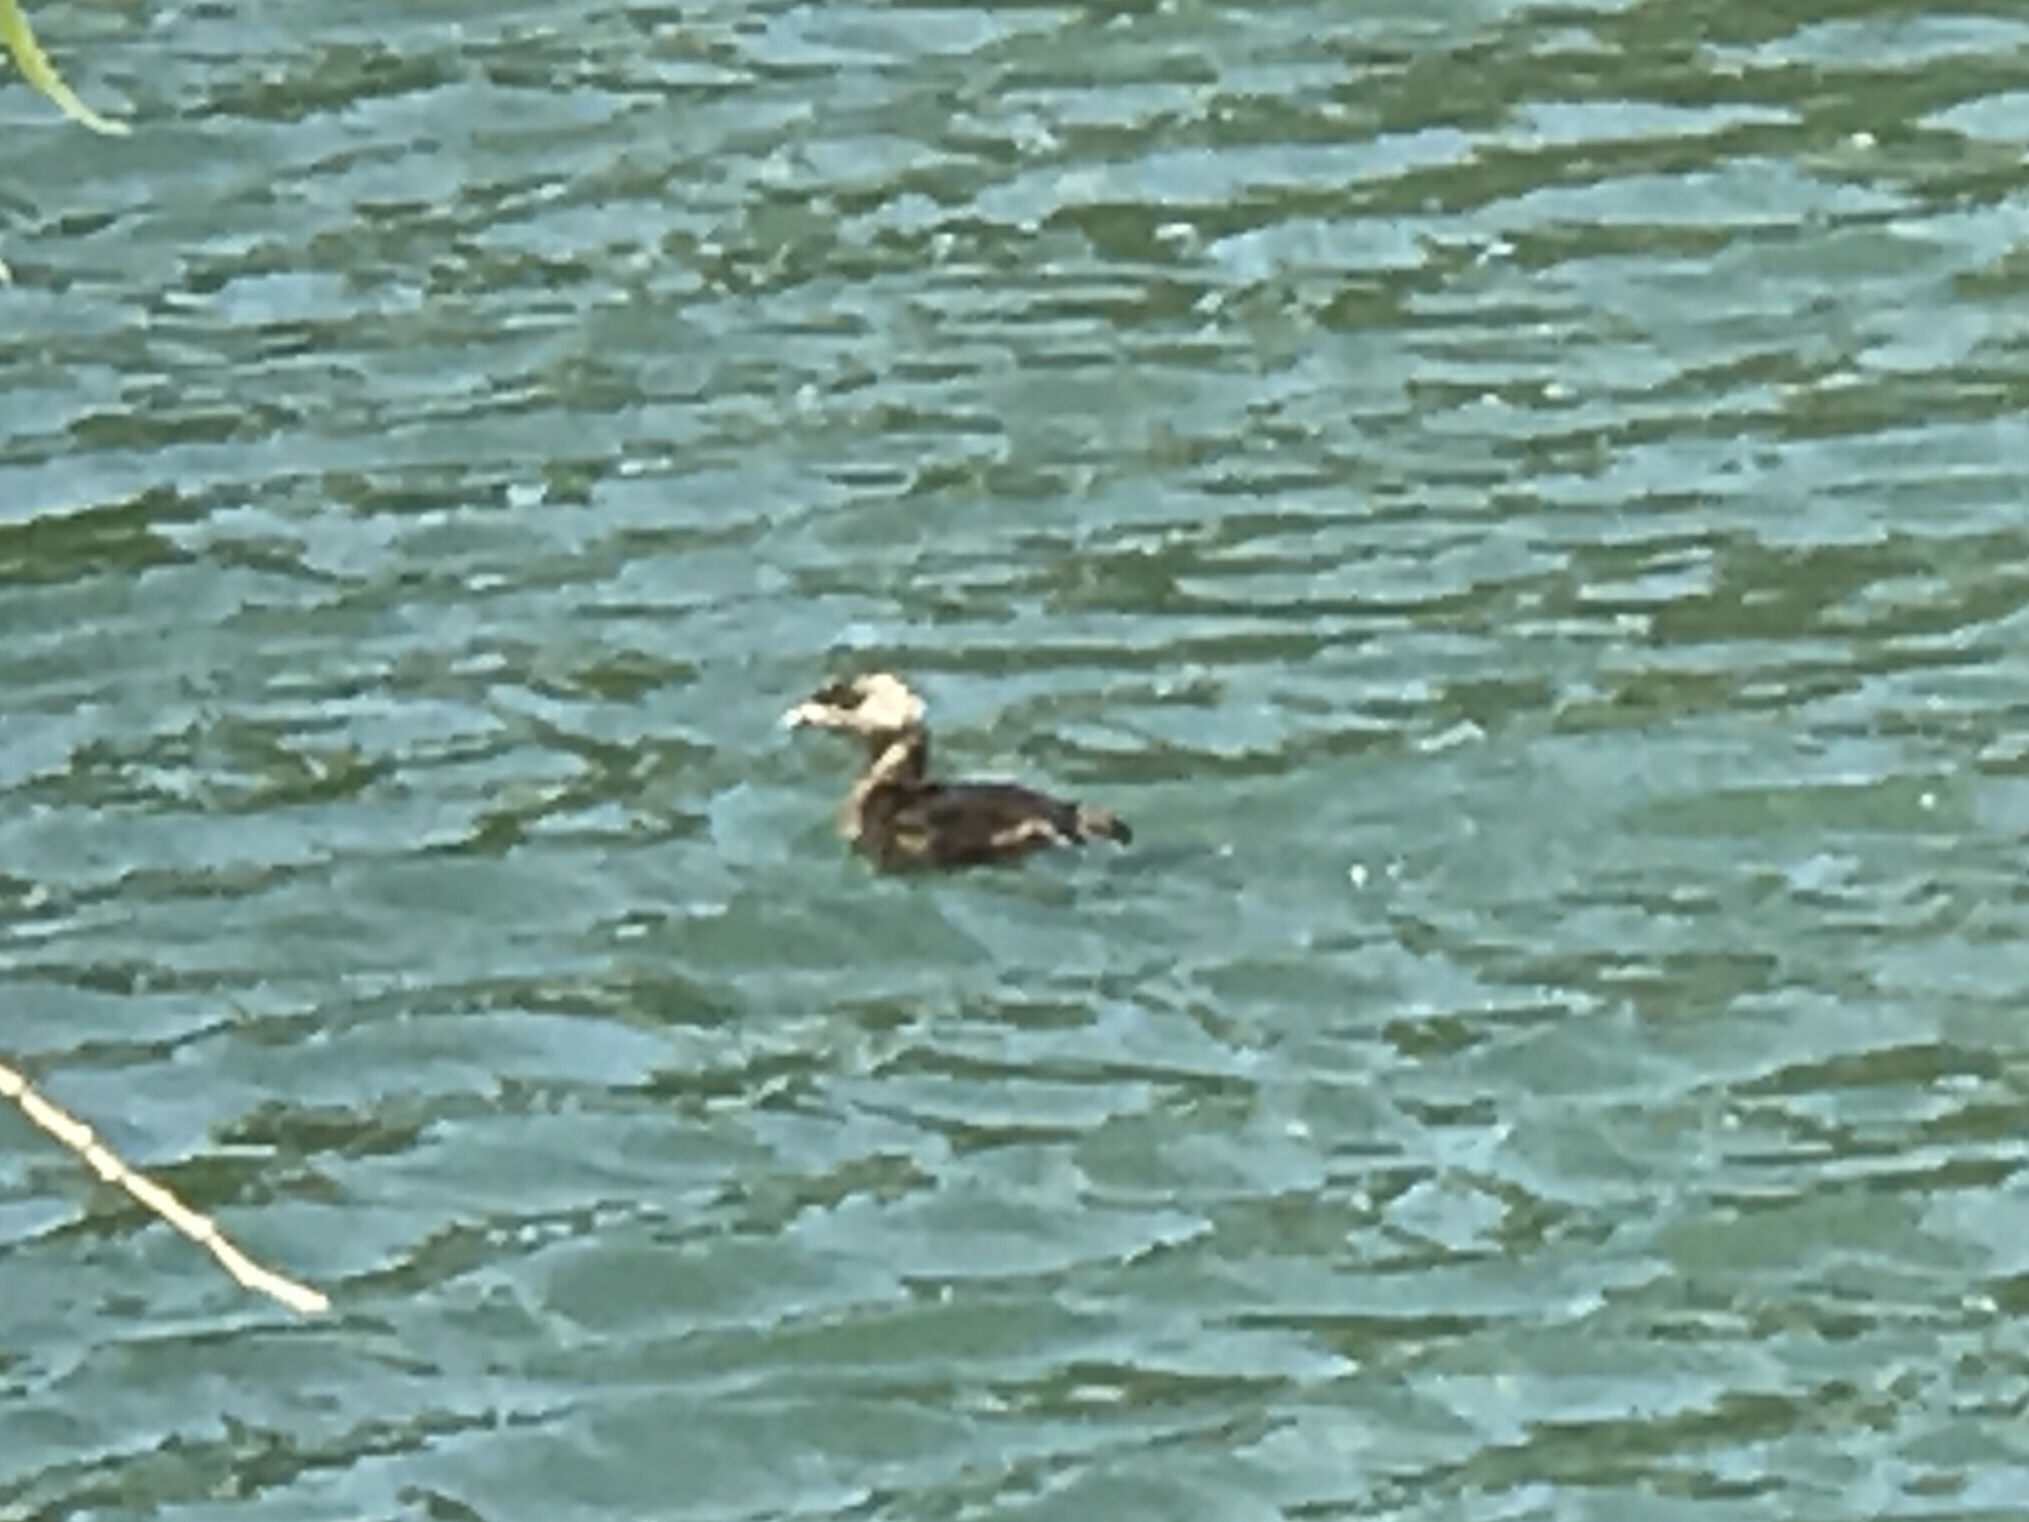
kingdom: Animalia
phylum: Chordata
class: Aves
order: Podicipediformes
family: Podicipedidae
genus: Podilymbus
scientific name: Podilymbus podiceps
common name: Pied-billed grebe
